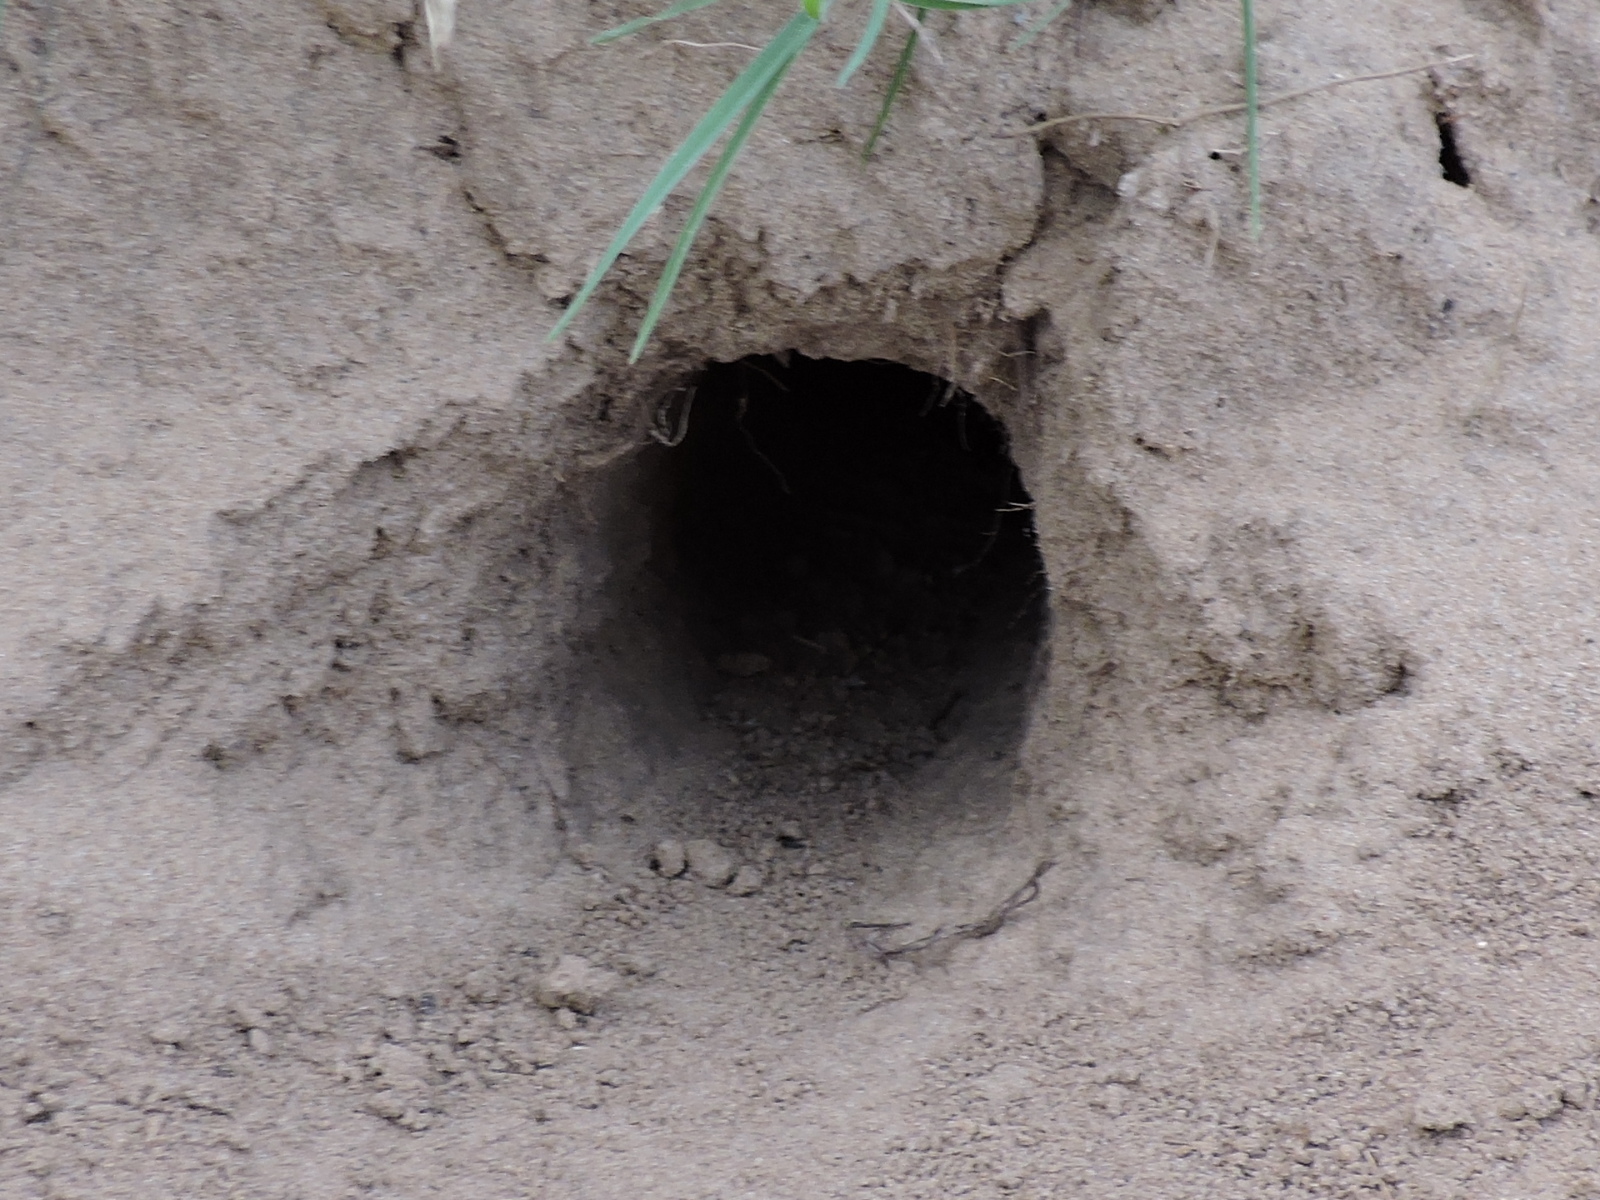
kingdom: Animalia
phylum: Chordata
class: Mammalia
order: Rodentia
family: Geomyidae
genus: Geomys
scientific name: Geomys personatus
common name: Texas pocket gopher
